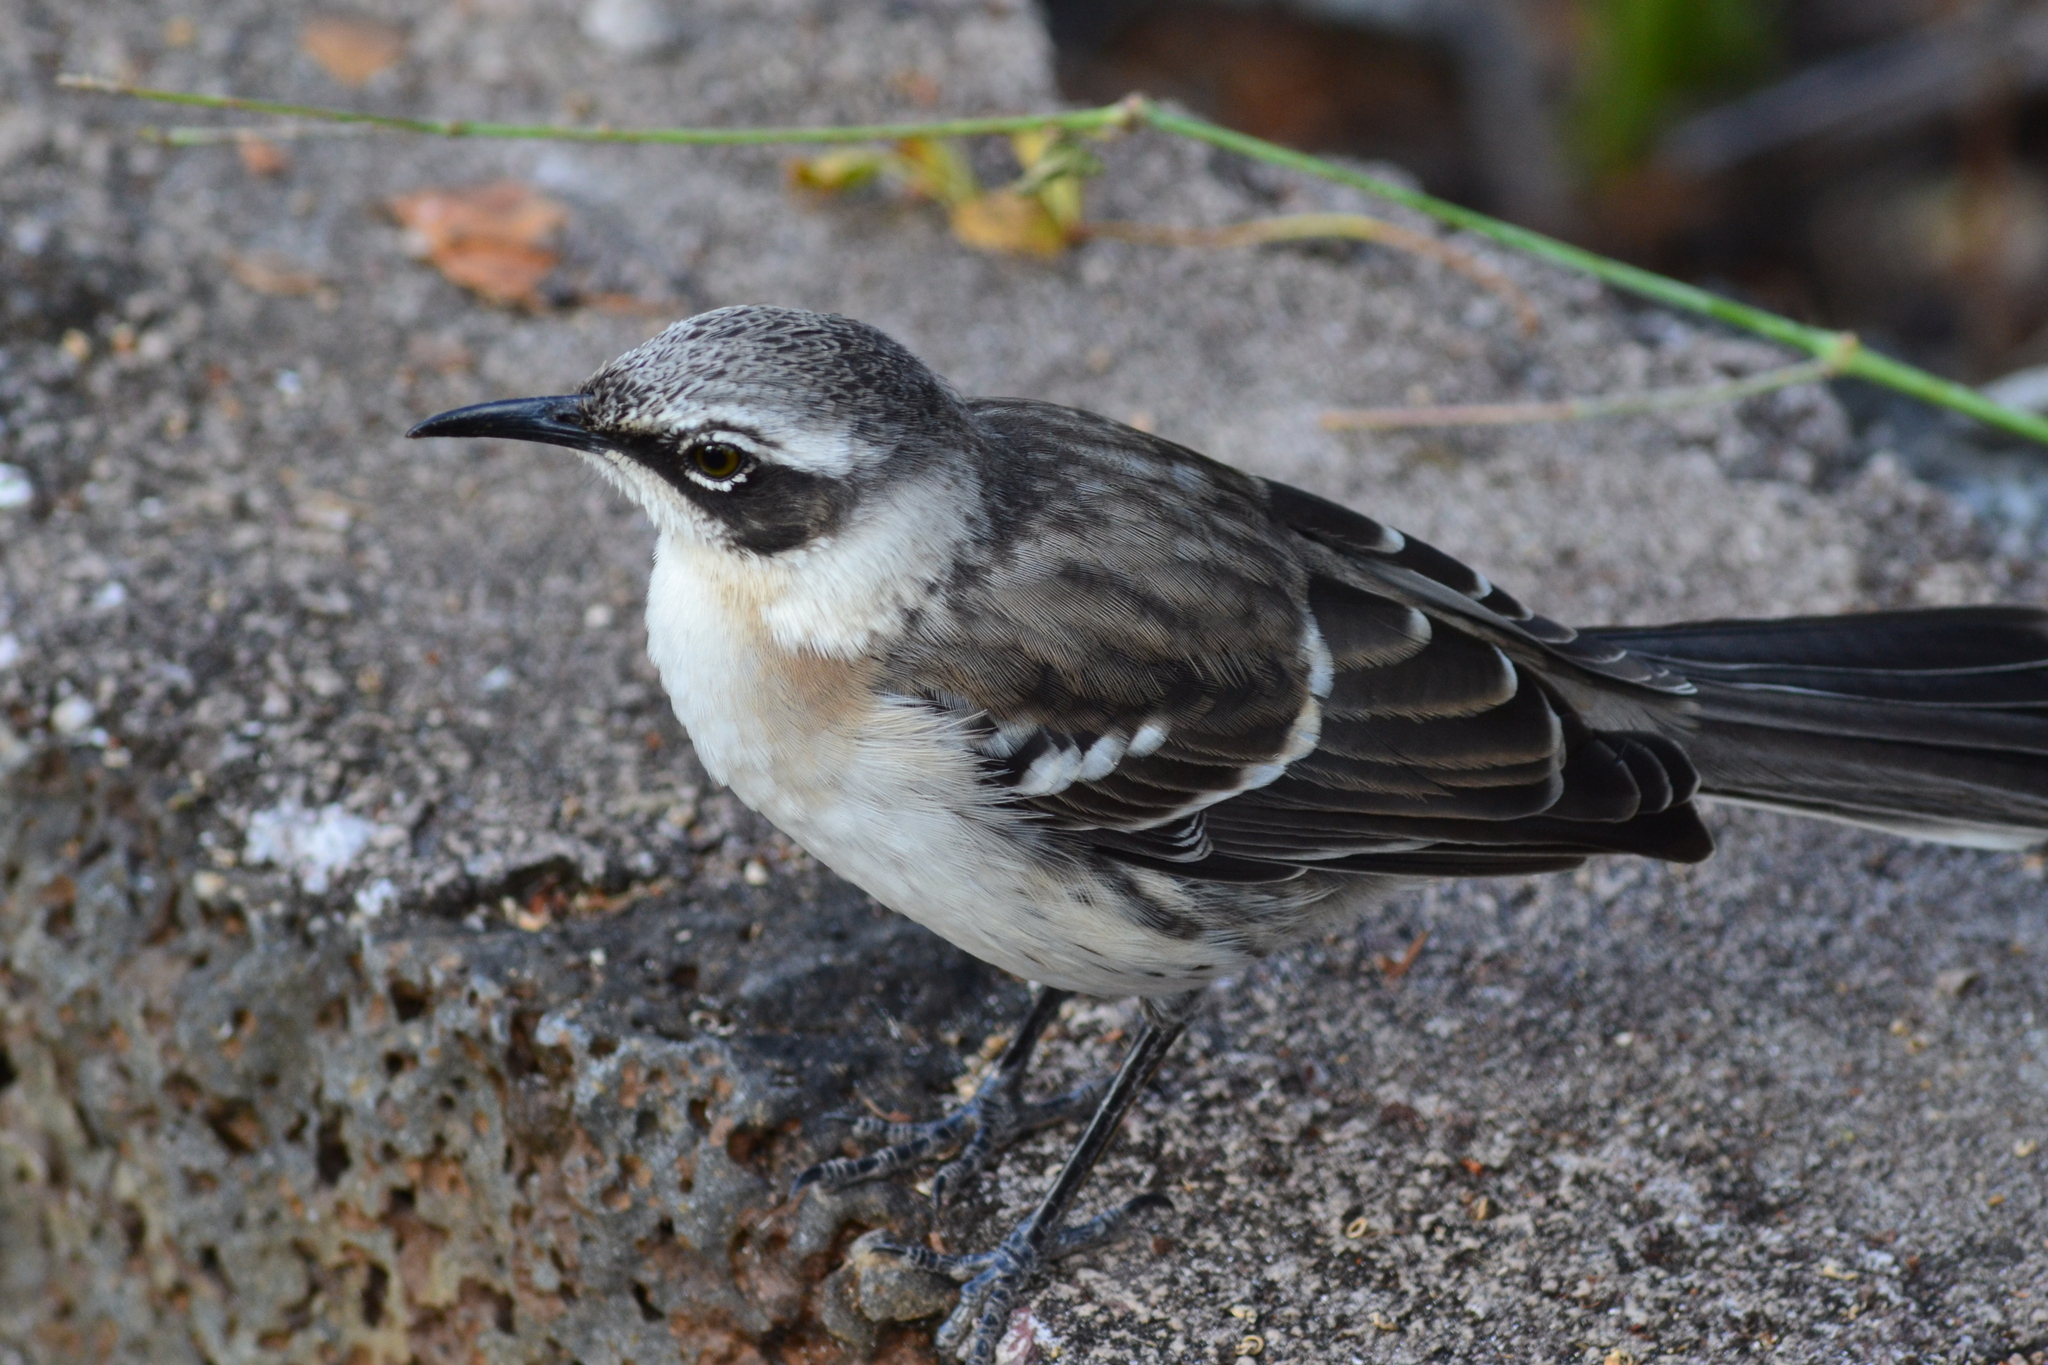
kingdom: Animalia
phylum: Chordata
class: Aves
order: Passeriformes
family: Mimidae
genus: Mimus
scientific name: Mimus parvulus
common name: Galapagos mockingbird
